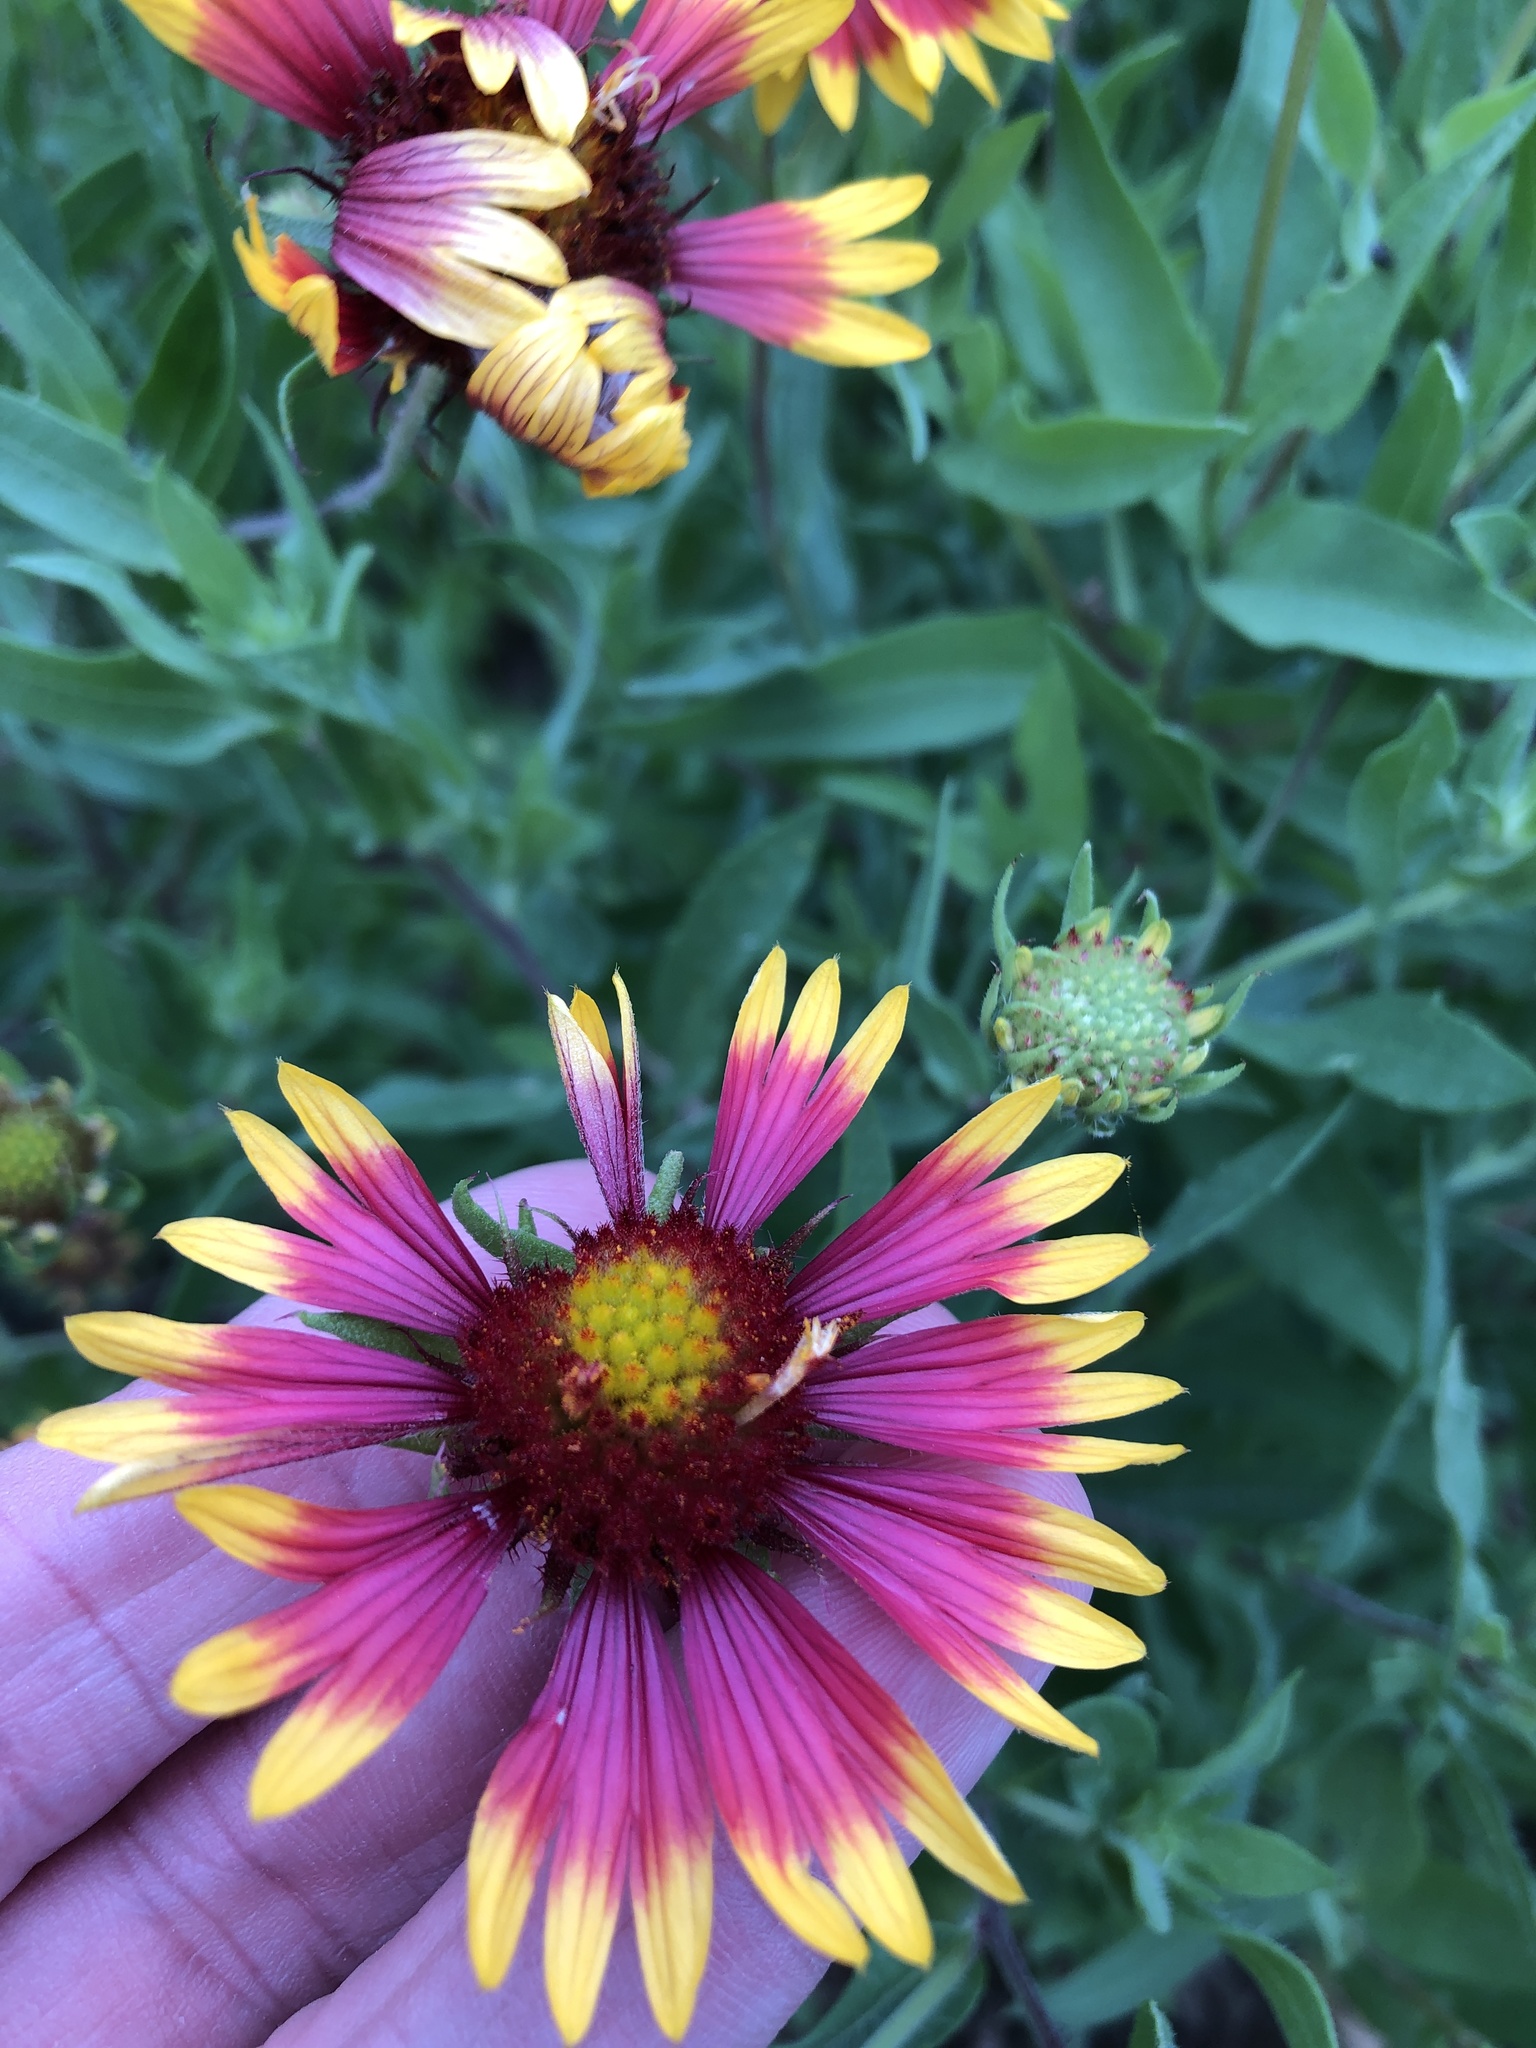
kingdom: Plantae
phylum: Tracheophyta
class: Magnoliopsida
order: Asterales
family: Asteraceae
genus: Gaillardia
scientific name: Gaillardia pulchella
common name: Firewheel
